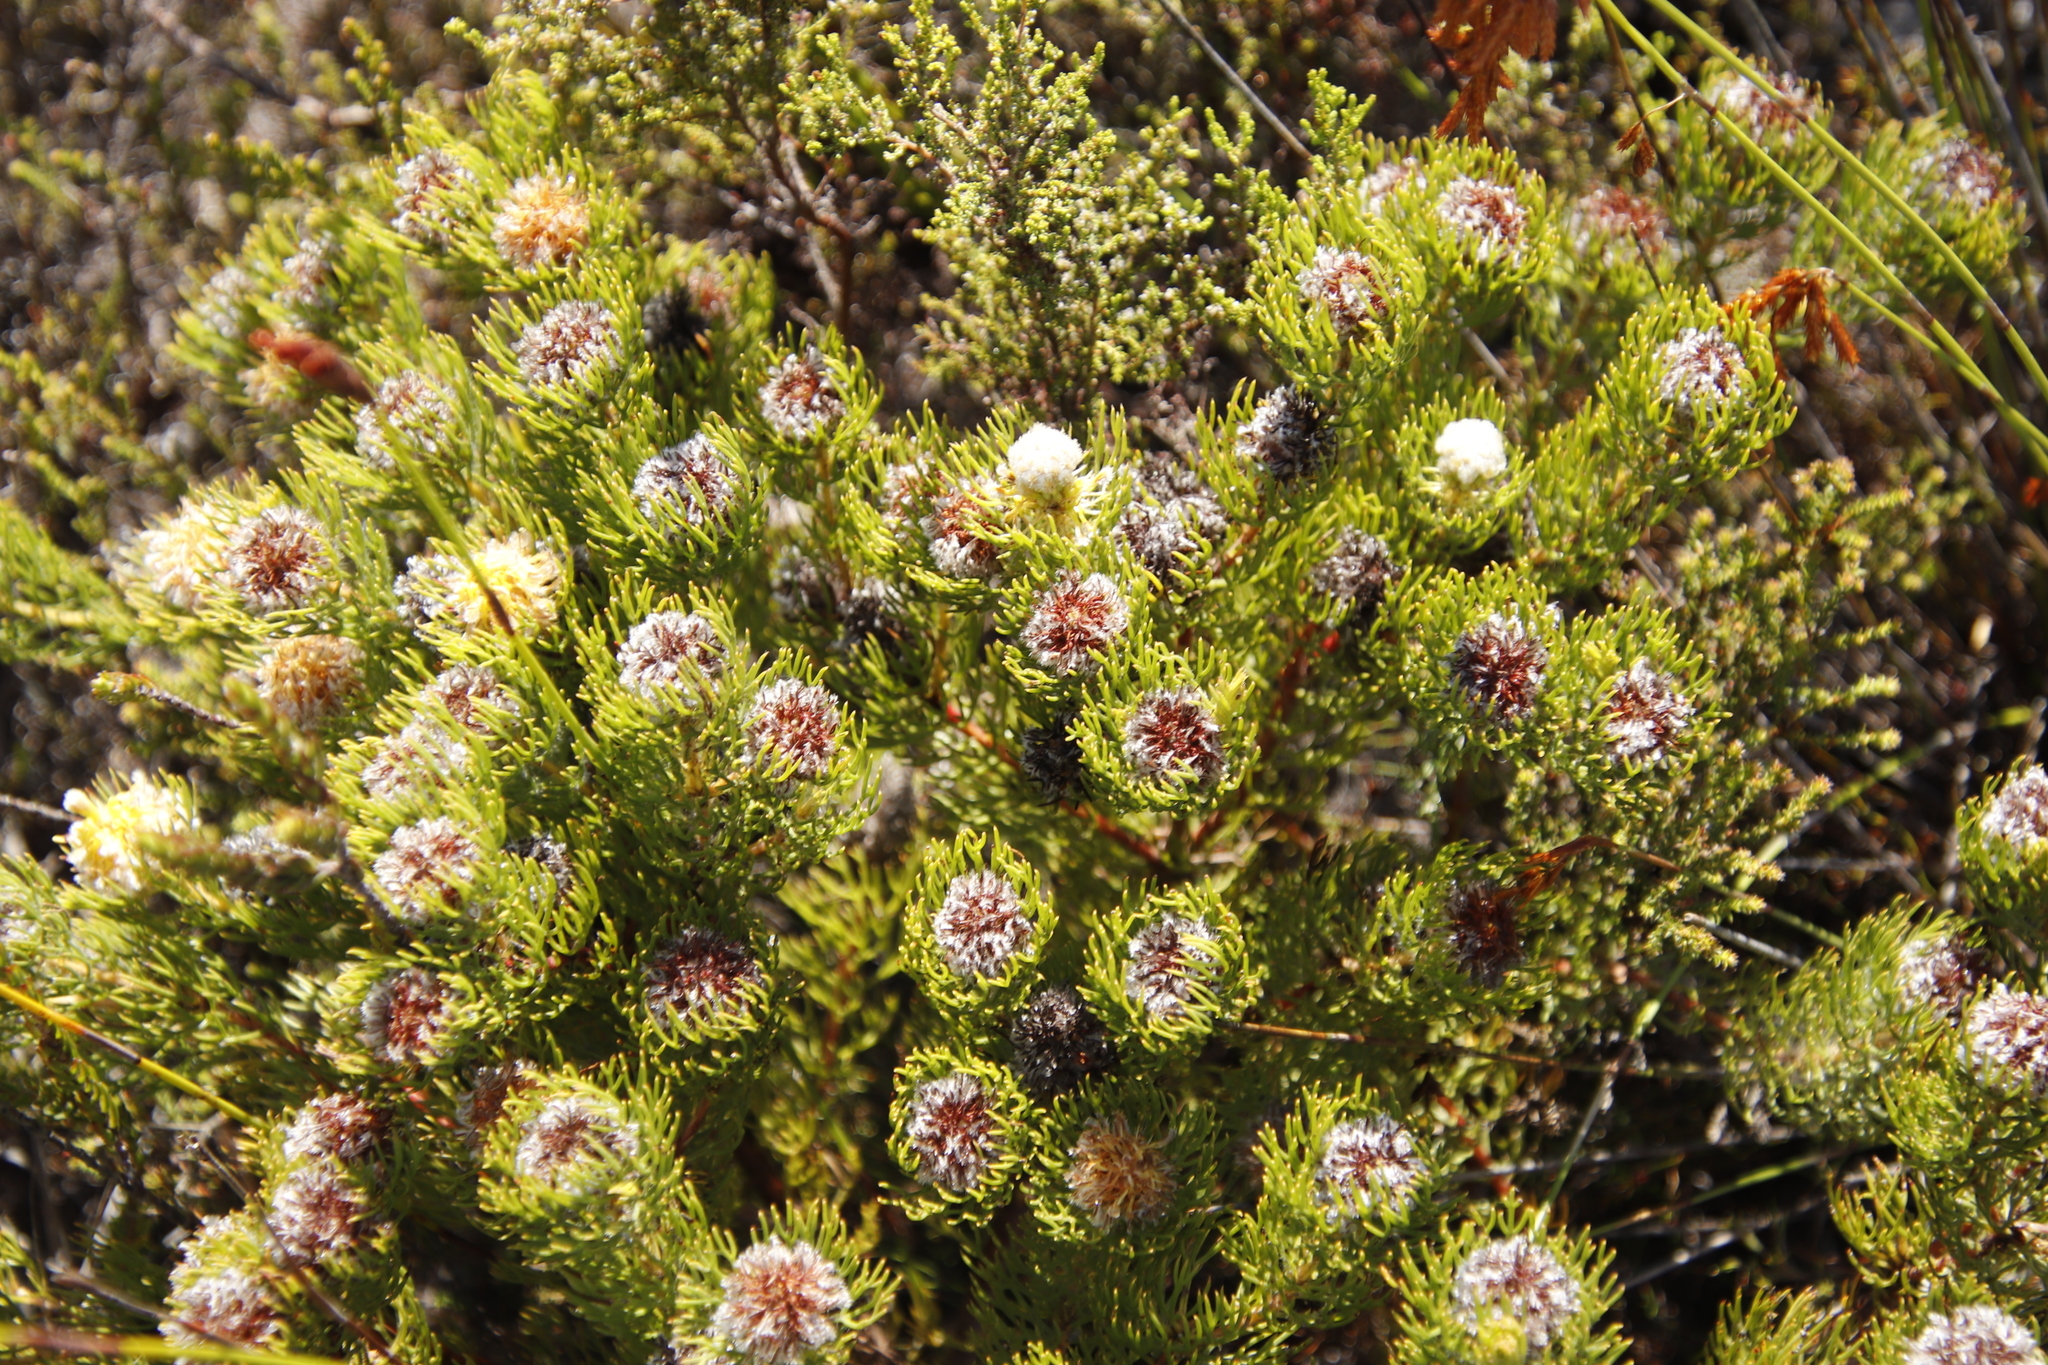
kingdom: Plantae
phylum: Tracheophyta
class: Magnoliopsida
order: Proteales
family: Proteaceae
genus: Serruria
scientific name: Serruria villosa
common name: Golden spiderhead
